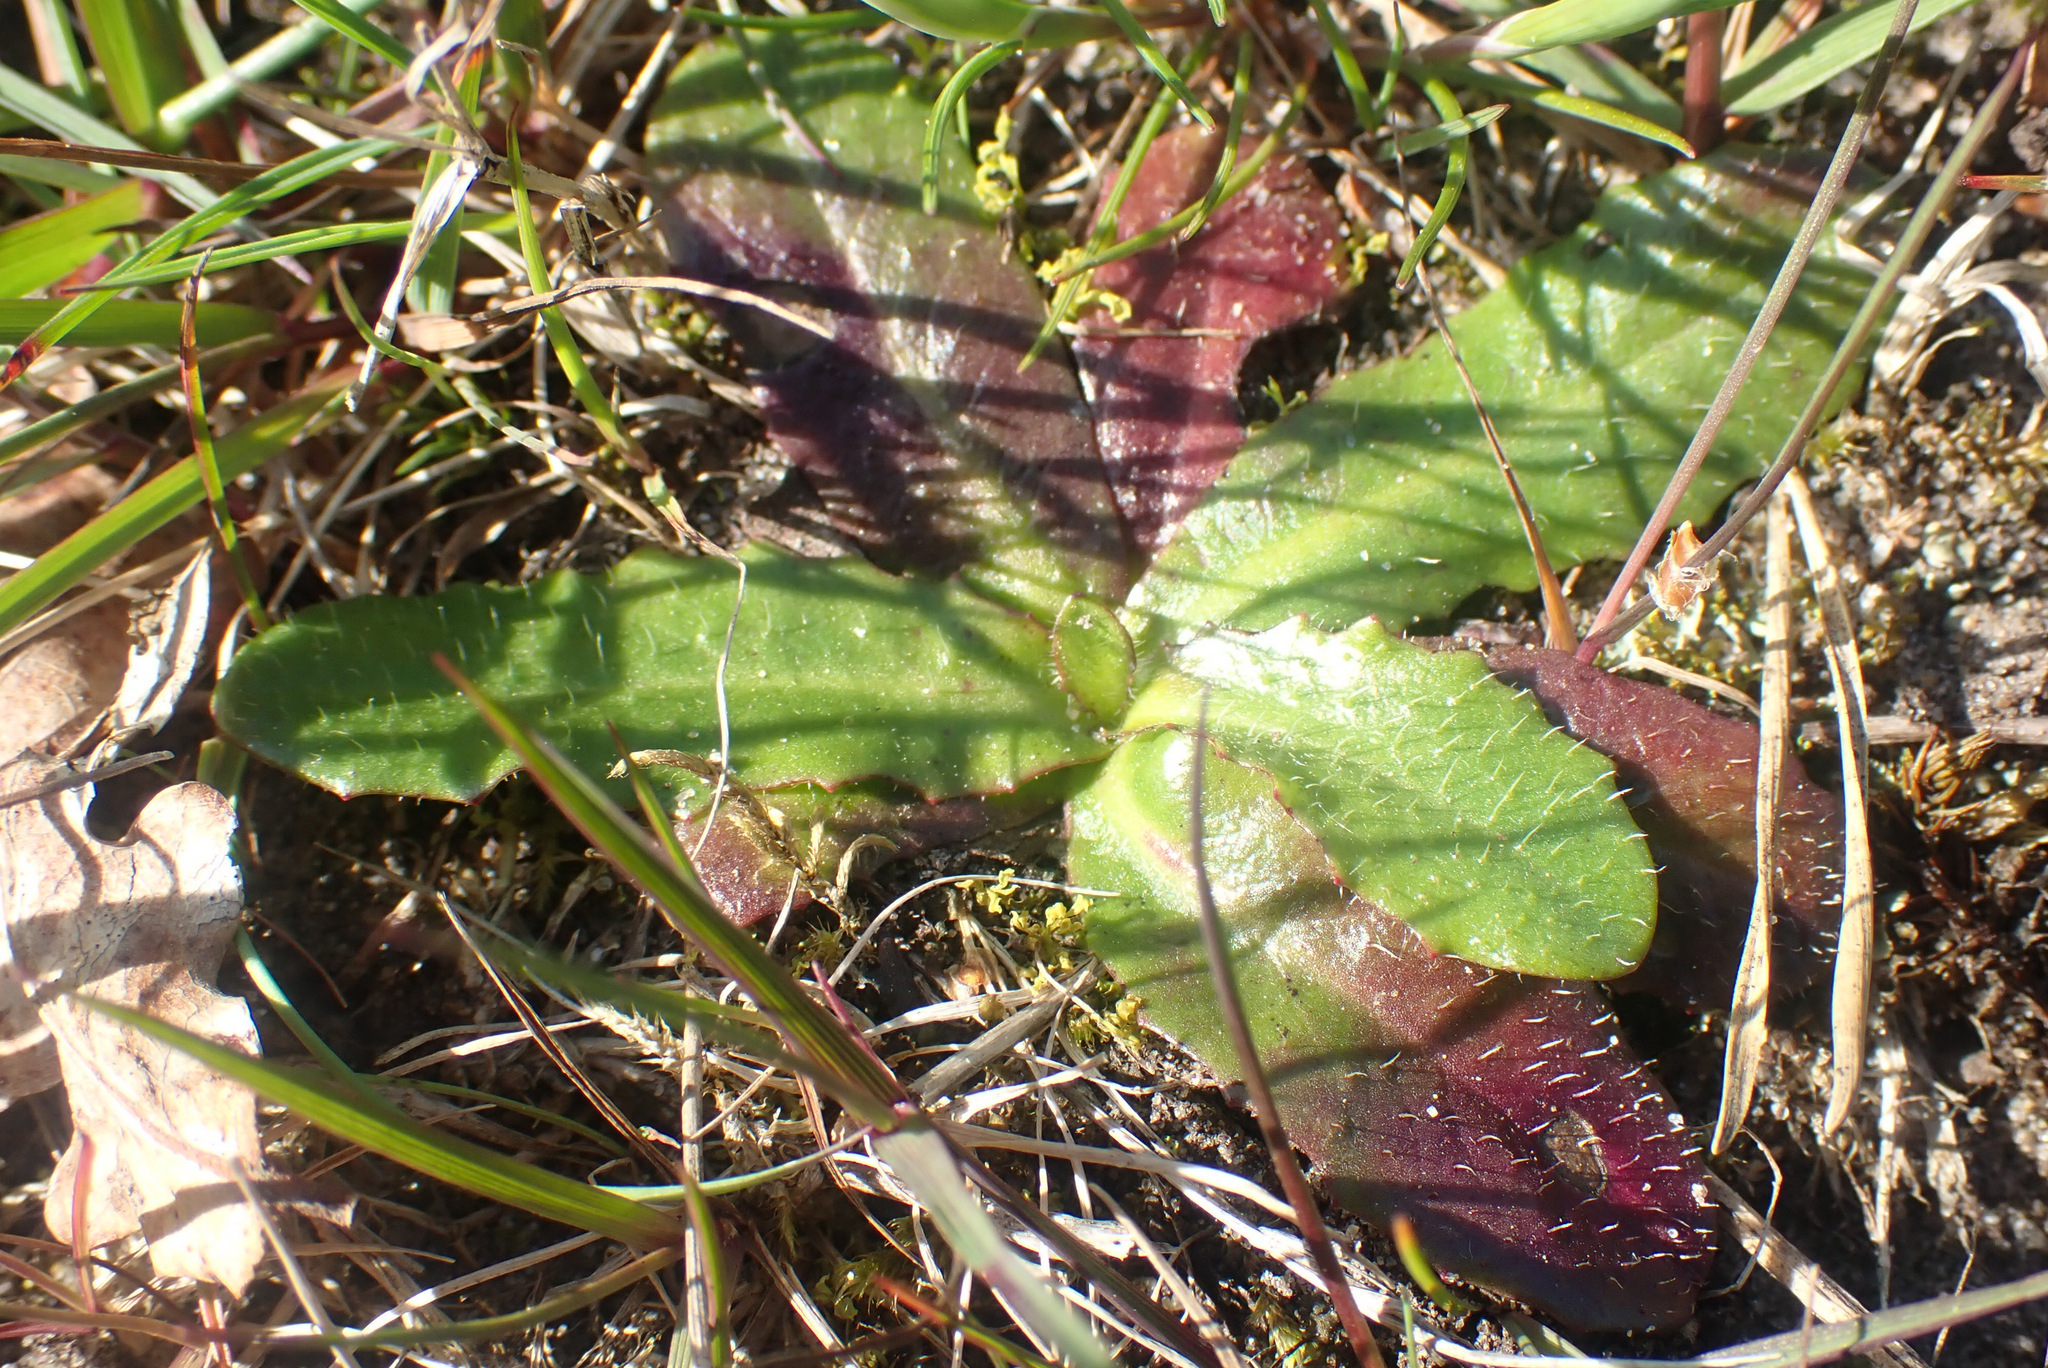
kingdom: Plantae
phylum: Tracheophyta
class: Magnoliopsida
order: Asterales
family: Asteraceae
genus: Hypochaeris
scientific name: Hypochaeris radicata
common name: Flatweed
